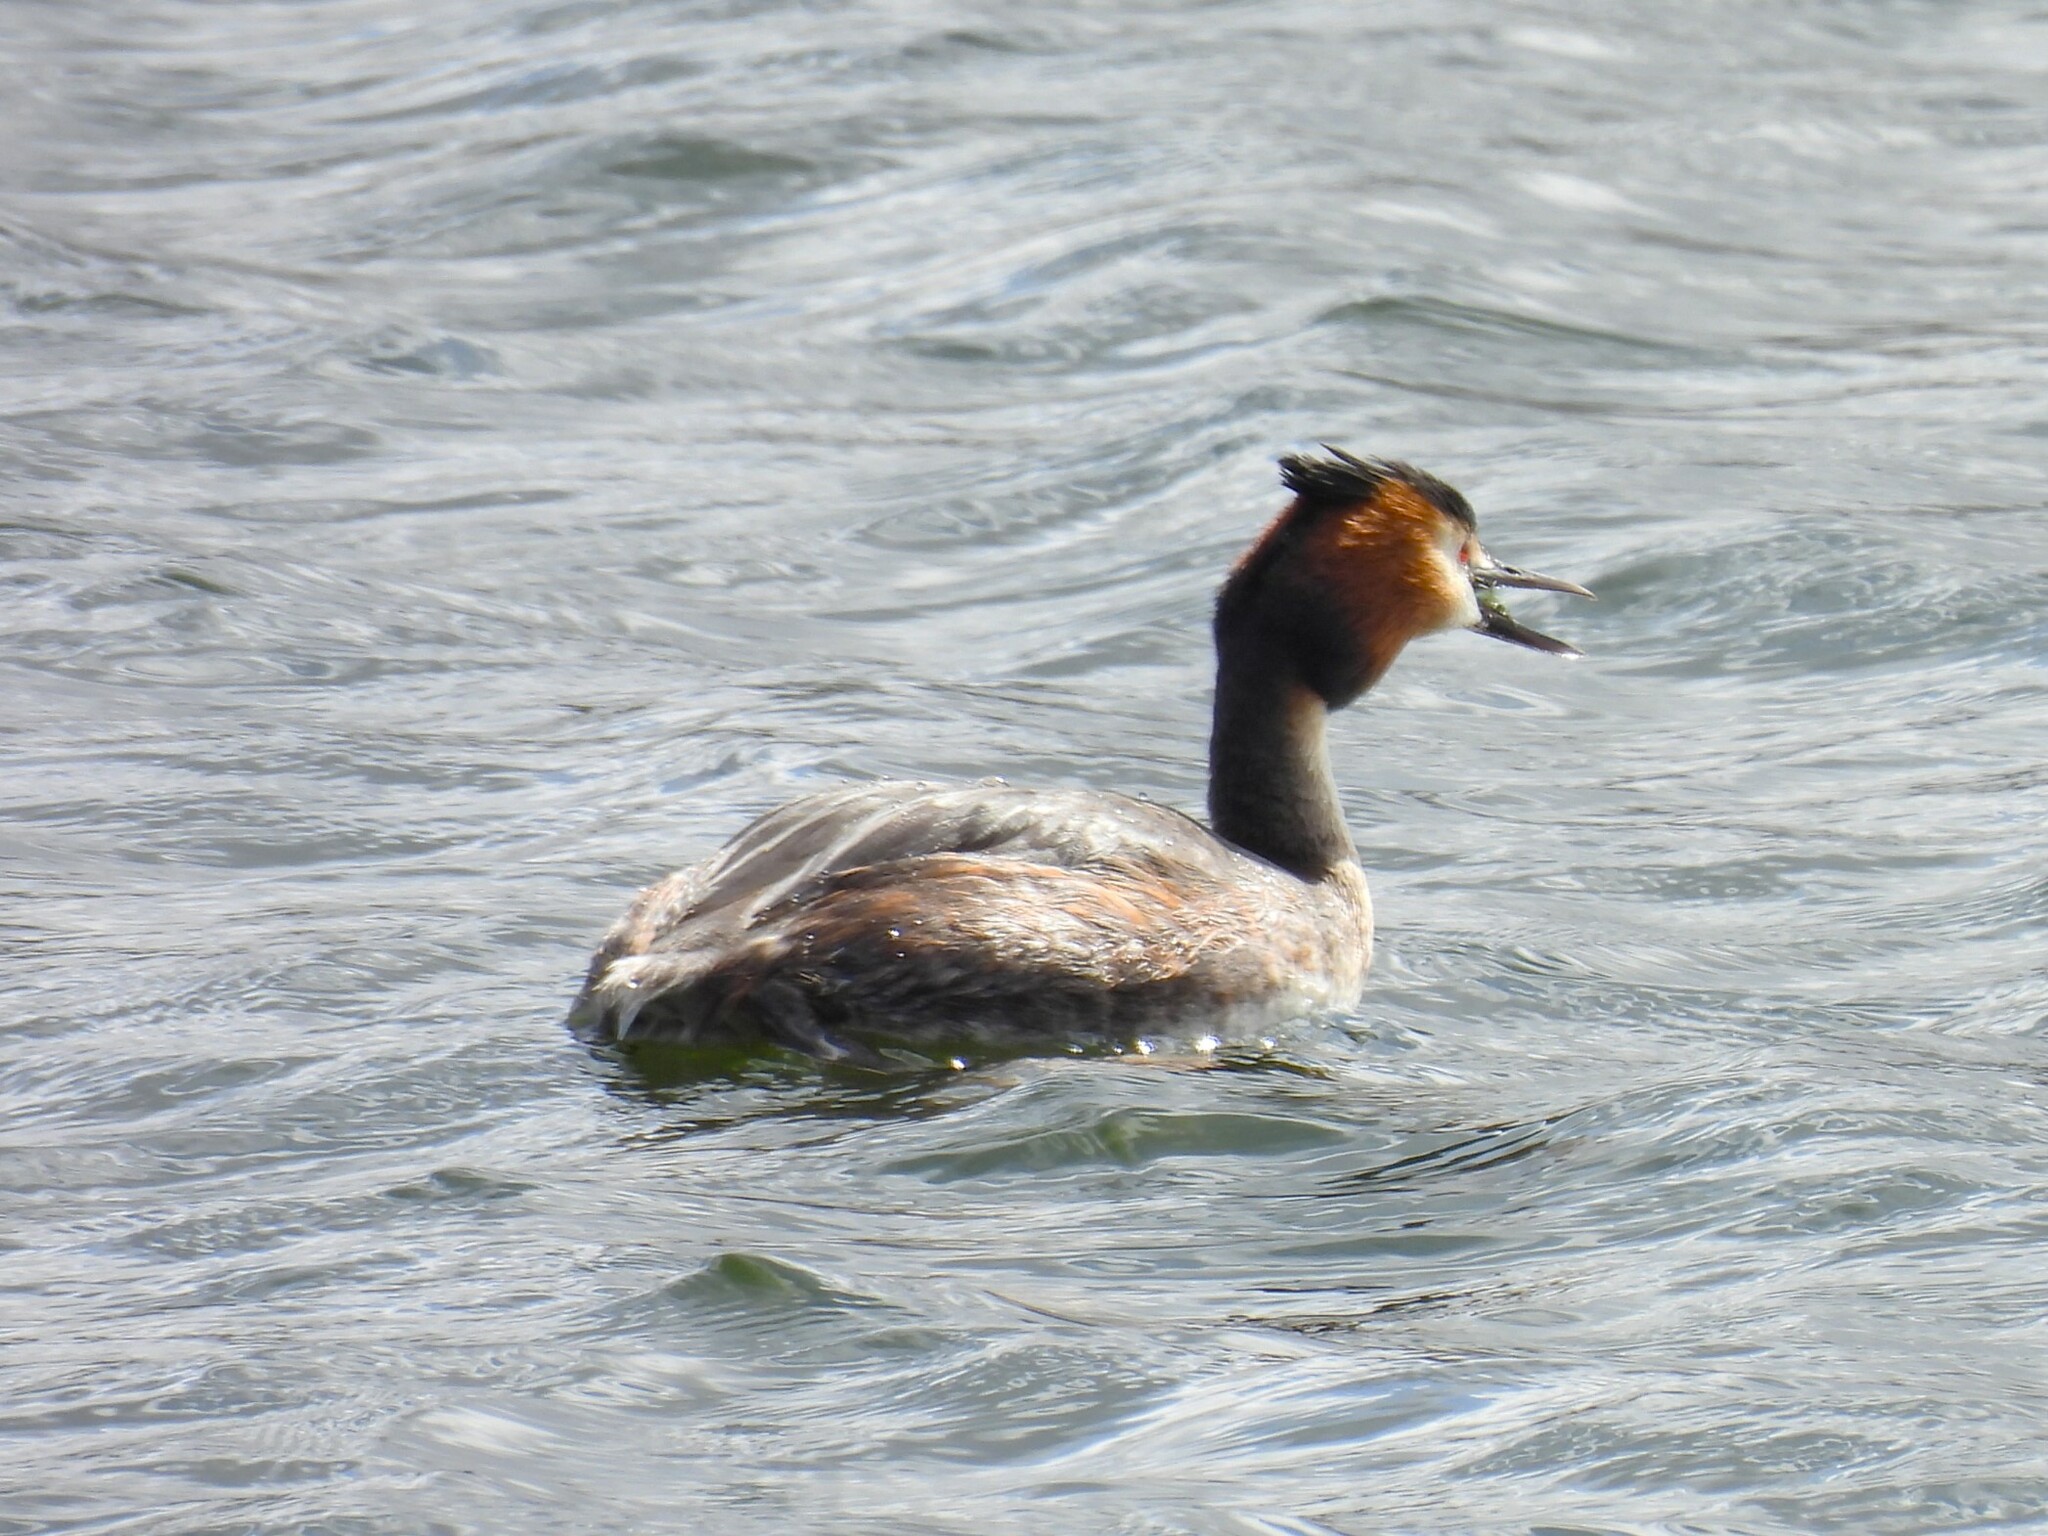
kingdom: Animalia
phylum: Chordata
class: Aves
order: Podicipediformes
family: Podicipedidae
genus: Podiceps
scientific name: Podiceps cristatus
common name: Great crested grebe
